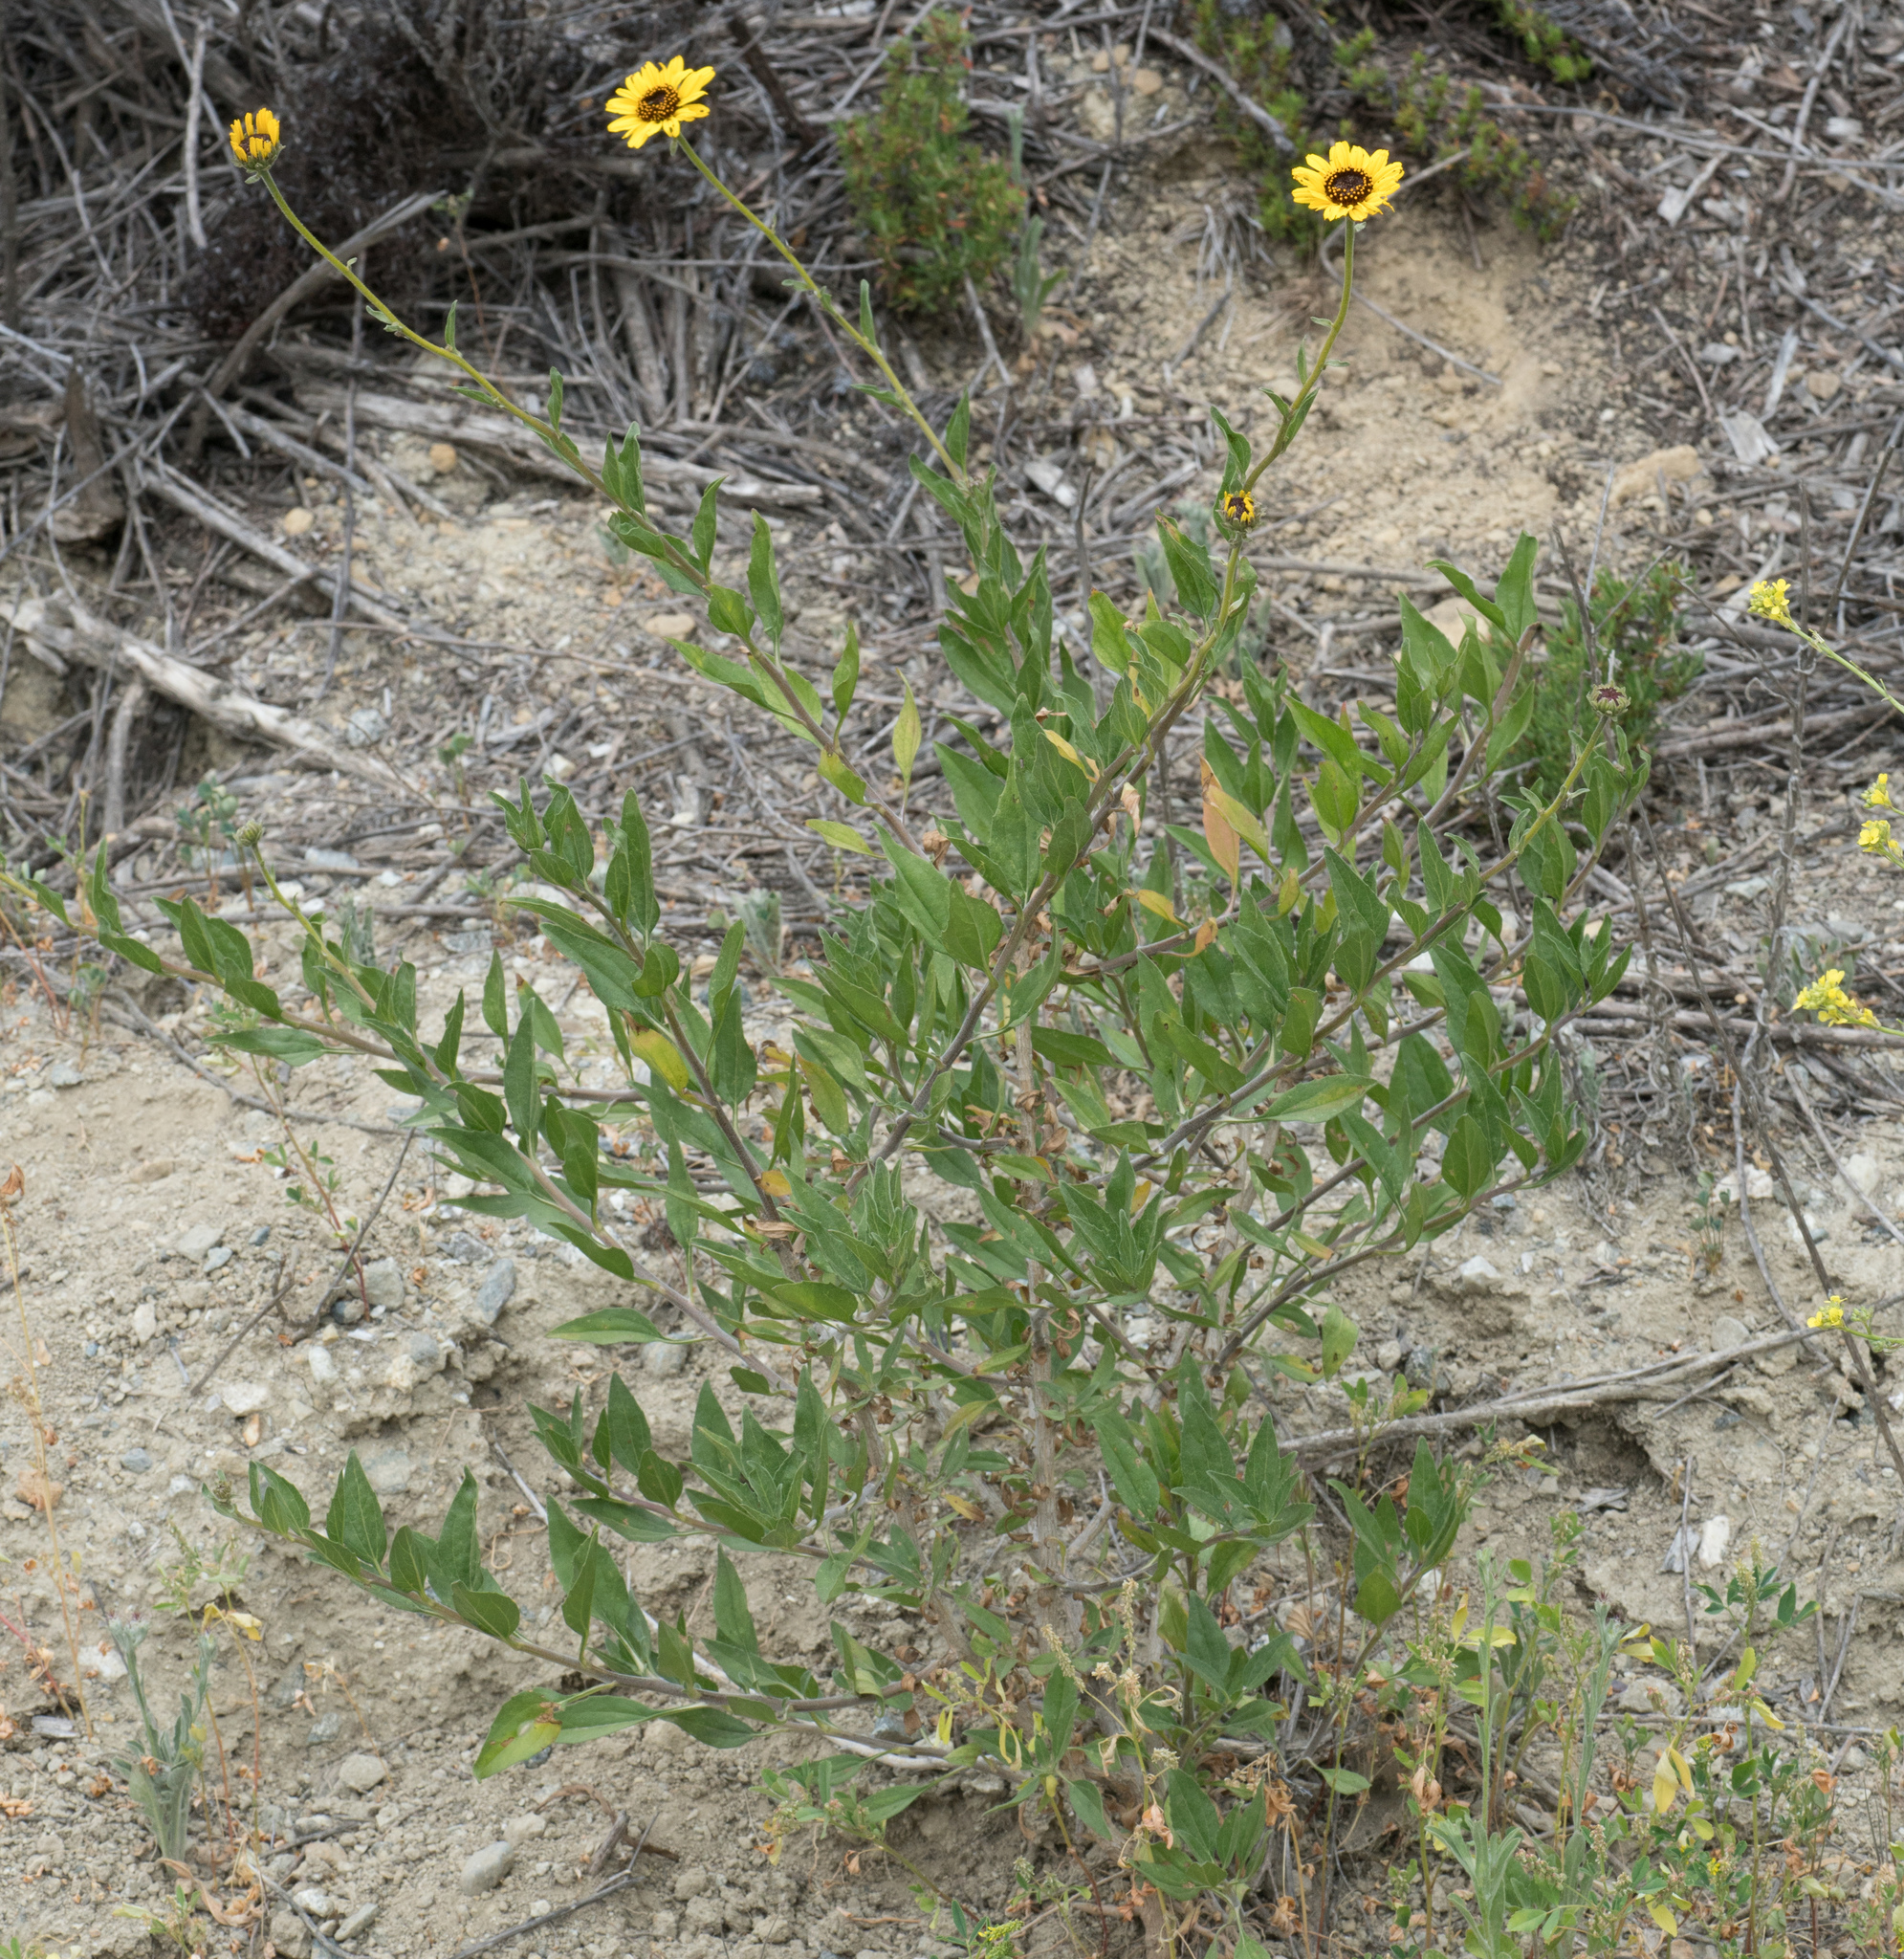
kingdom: Plantae
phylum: Tracheophyta
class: Magnoliopsida
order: Asterales
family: Asteraceae
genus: Encelia
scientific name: Encelia californica
